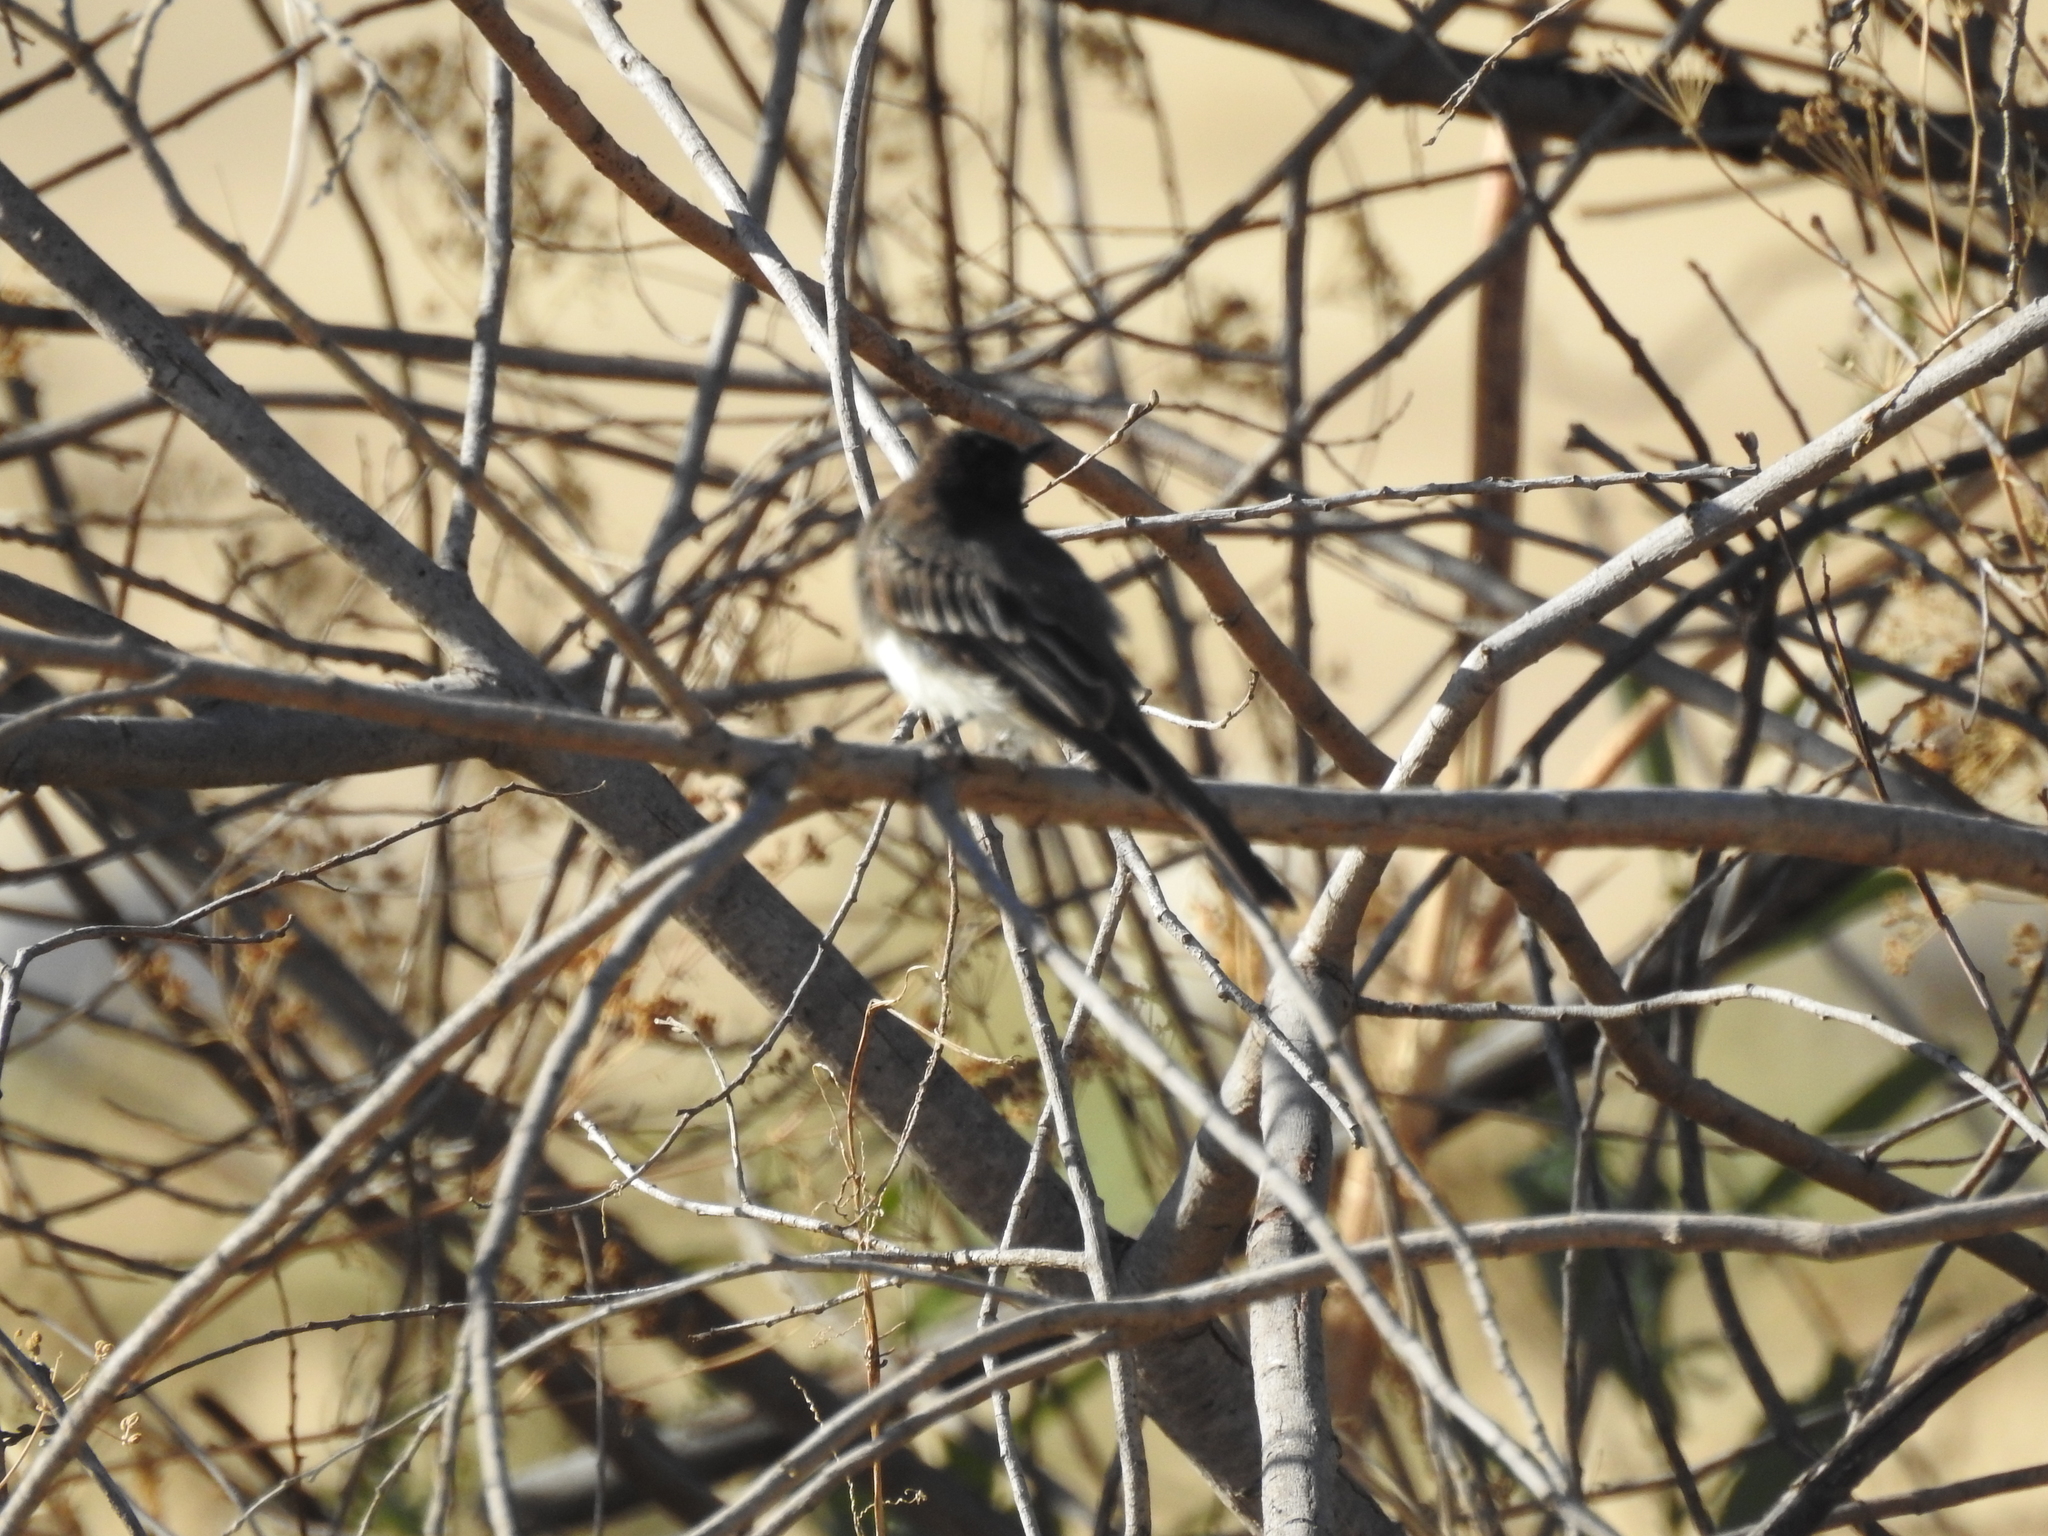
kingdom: Animalia
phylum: Chordata
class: Aves
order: Passeriformes
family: Tyrannidae
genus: Sayornis
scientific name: Sayornis nigricans
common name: Black phoebe
